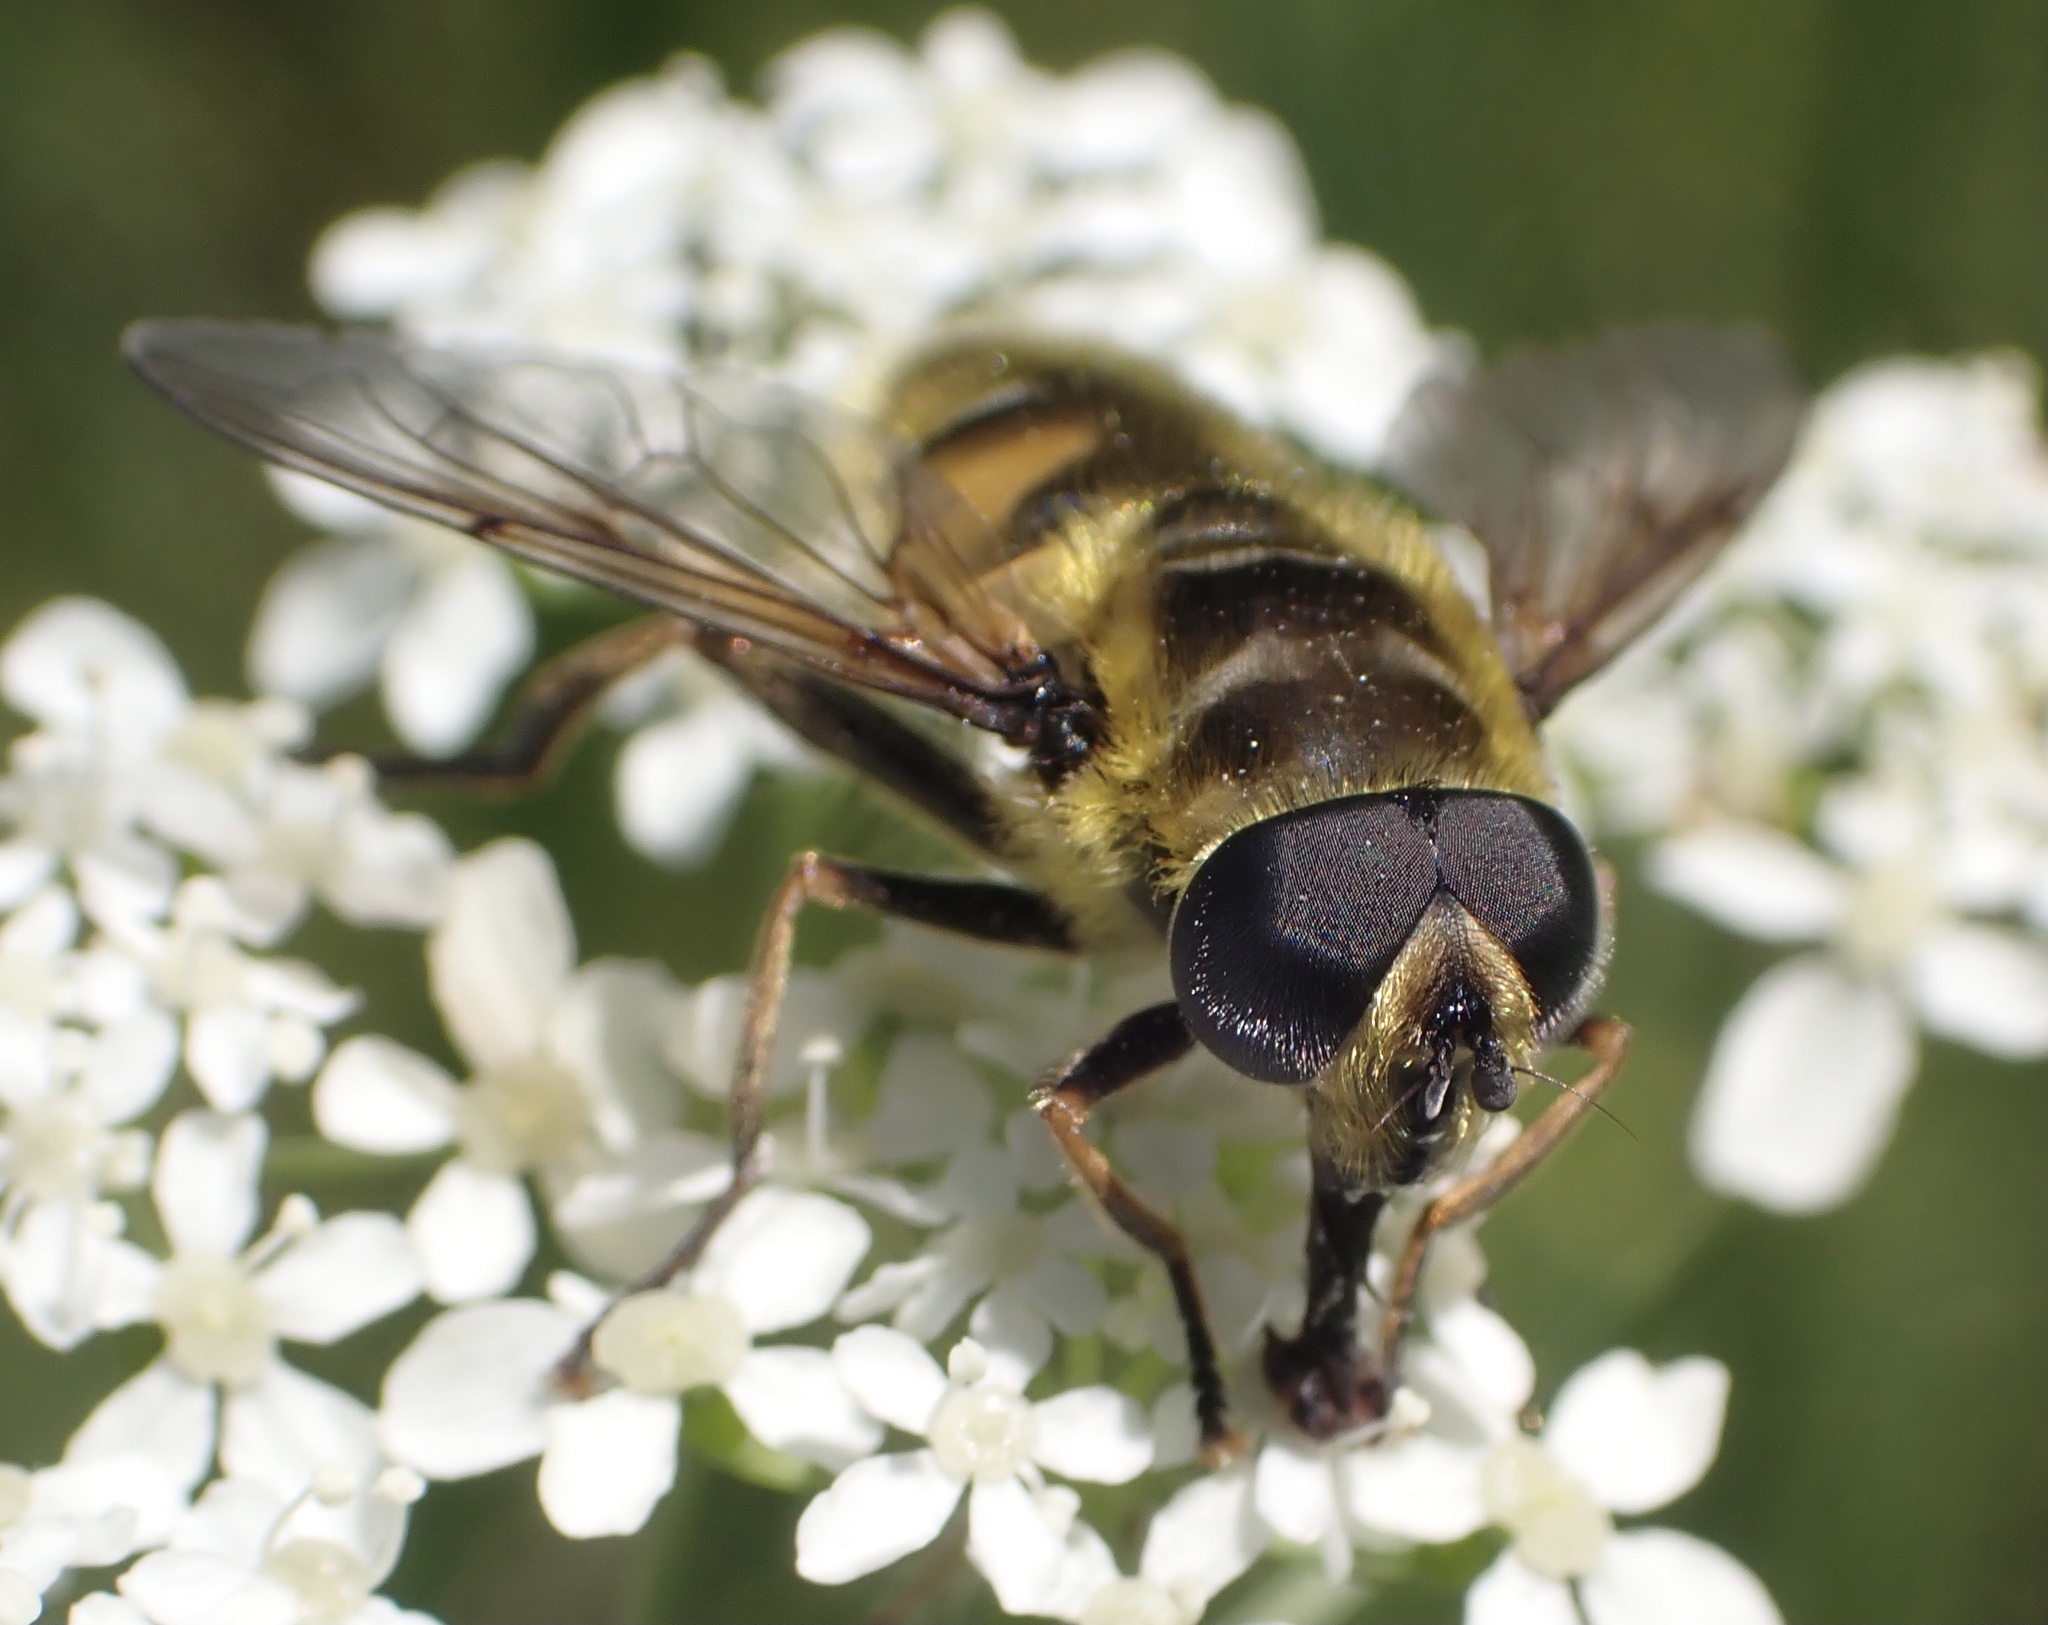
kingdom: Animalia
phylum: Arthropoda
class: Insecta
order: Diptera
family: Syrphidae
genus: Myathropa
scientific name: Myathropa florea
